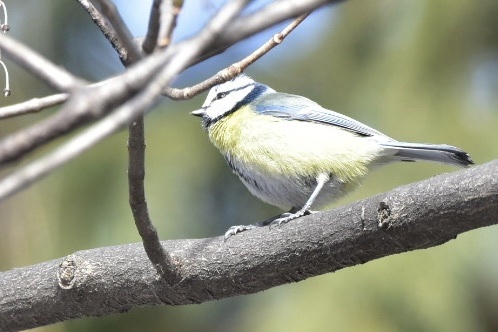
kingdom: Animalia
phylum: Chordata
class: Aves
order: Passeriformes
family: Paridae
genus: Cyanistes
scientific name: Cyanistes caeruleus
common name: Eurasian blue tit
